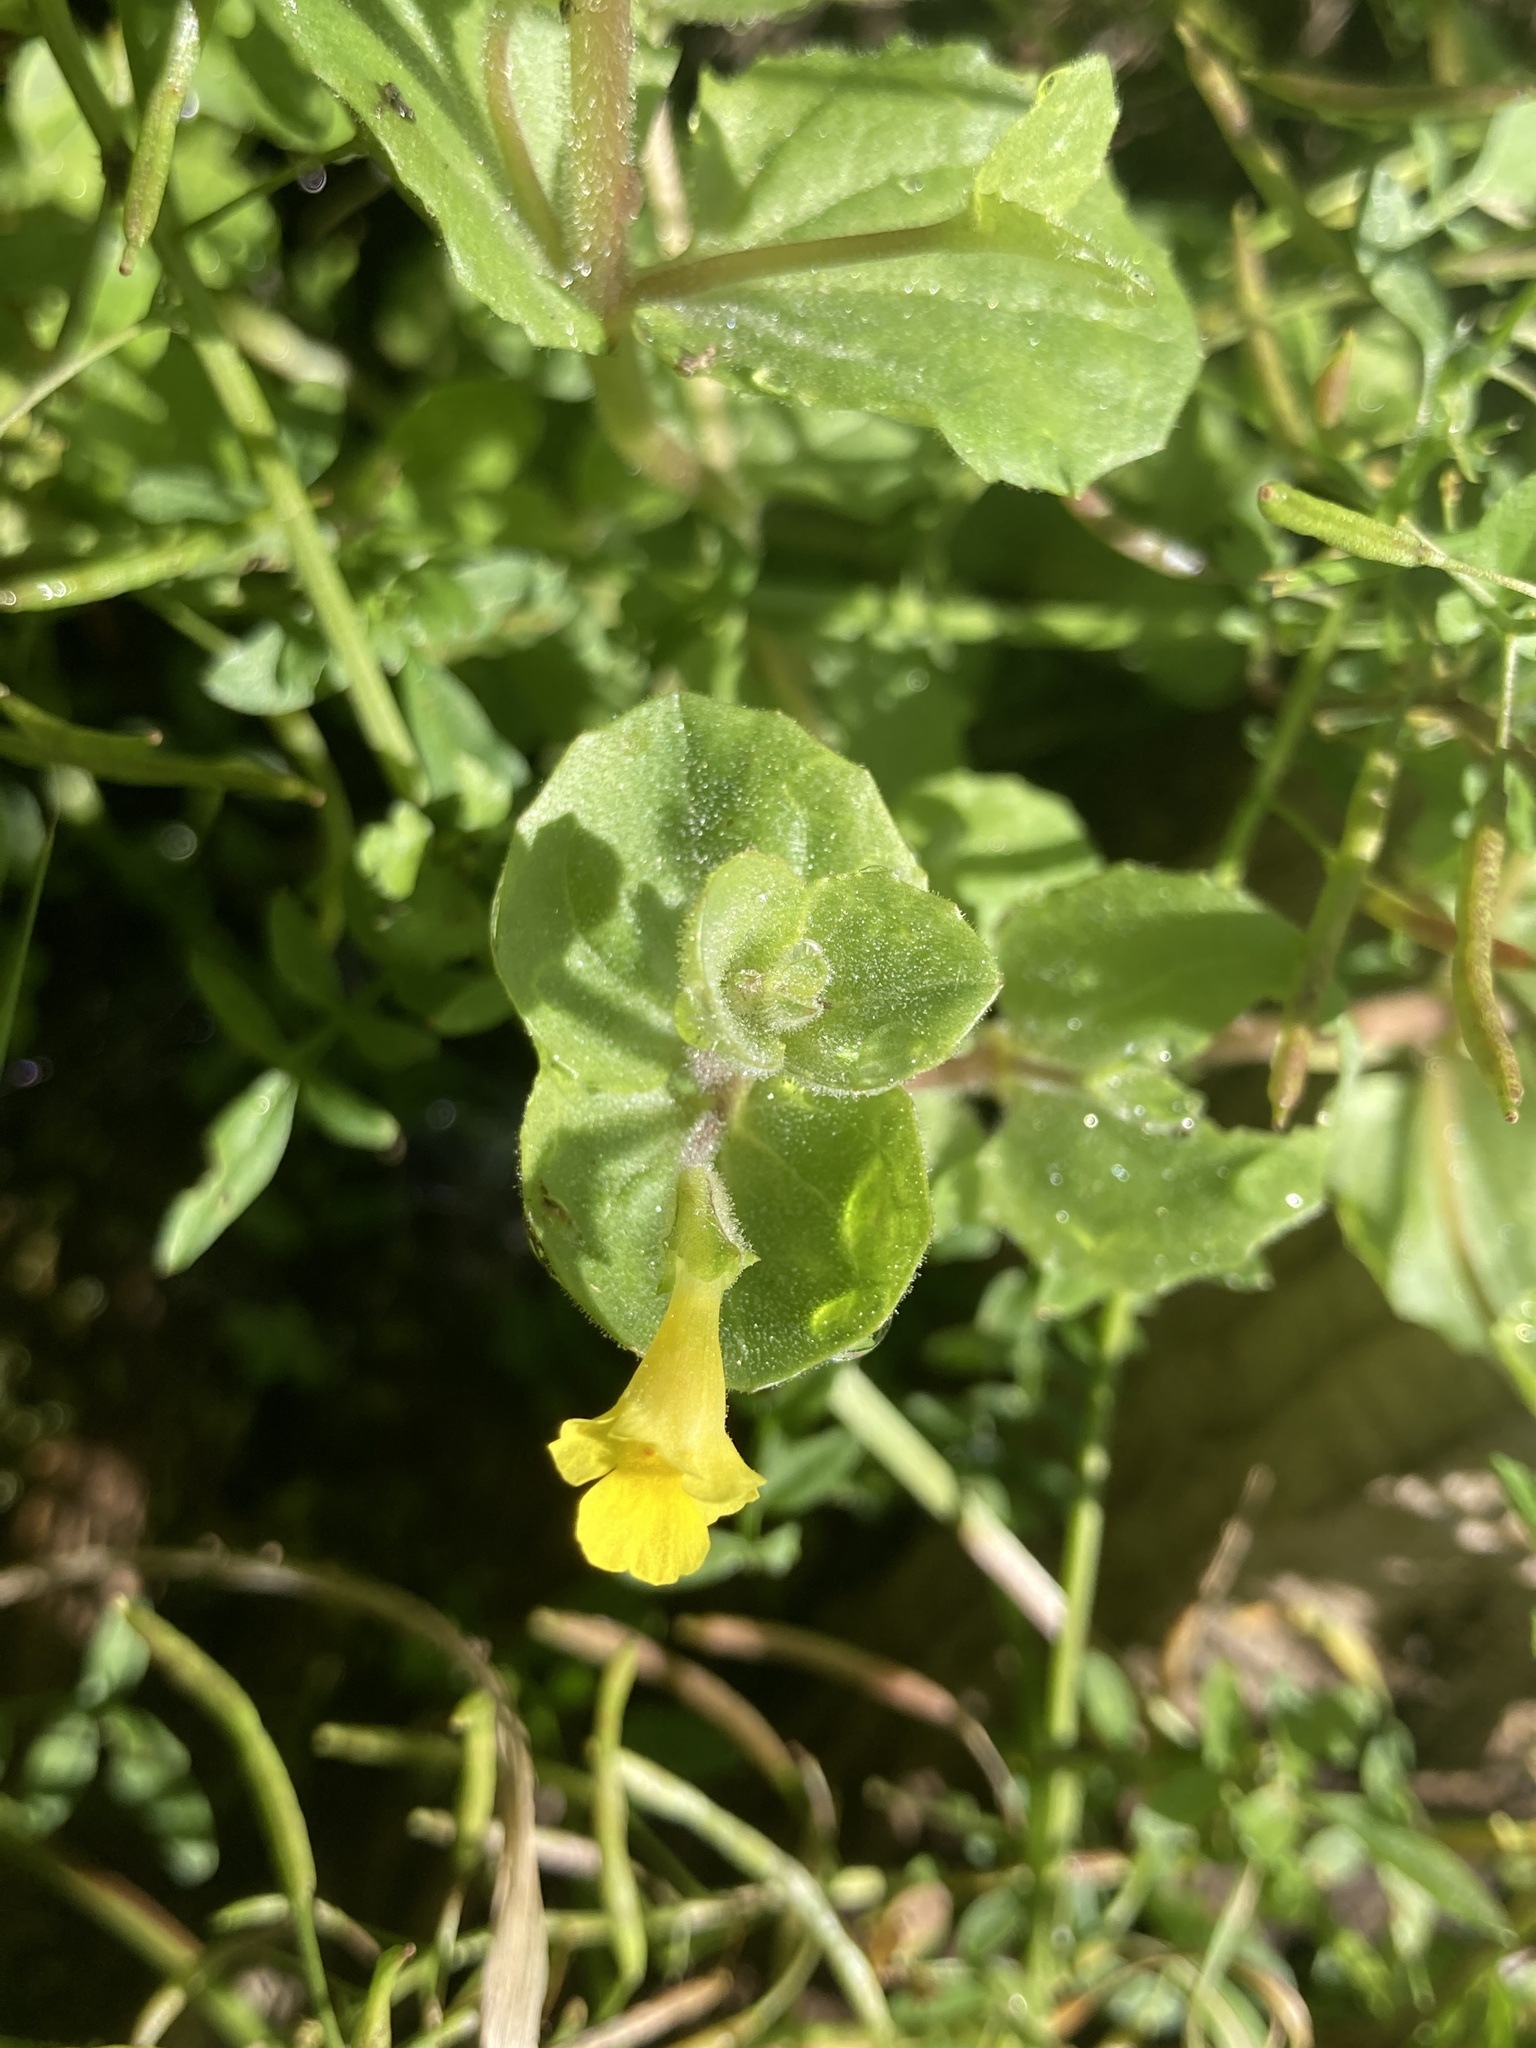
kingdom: Plantae
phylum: Tracheophyta
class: Magnoliopsida
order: Lamiales
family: Phrymaceae
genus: Erythranthe
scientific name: Erythranthe geyeri
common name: Geyer's monkeyflower
